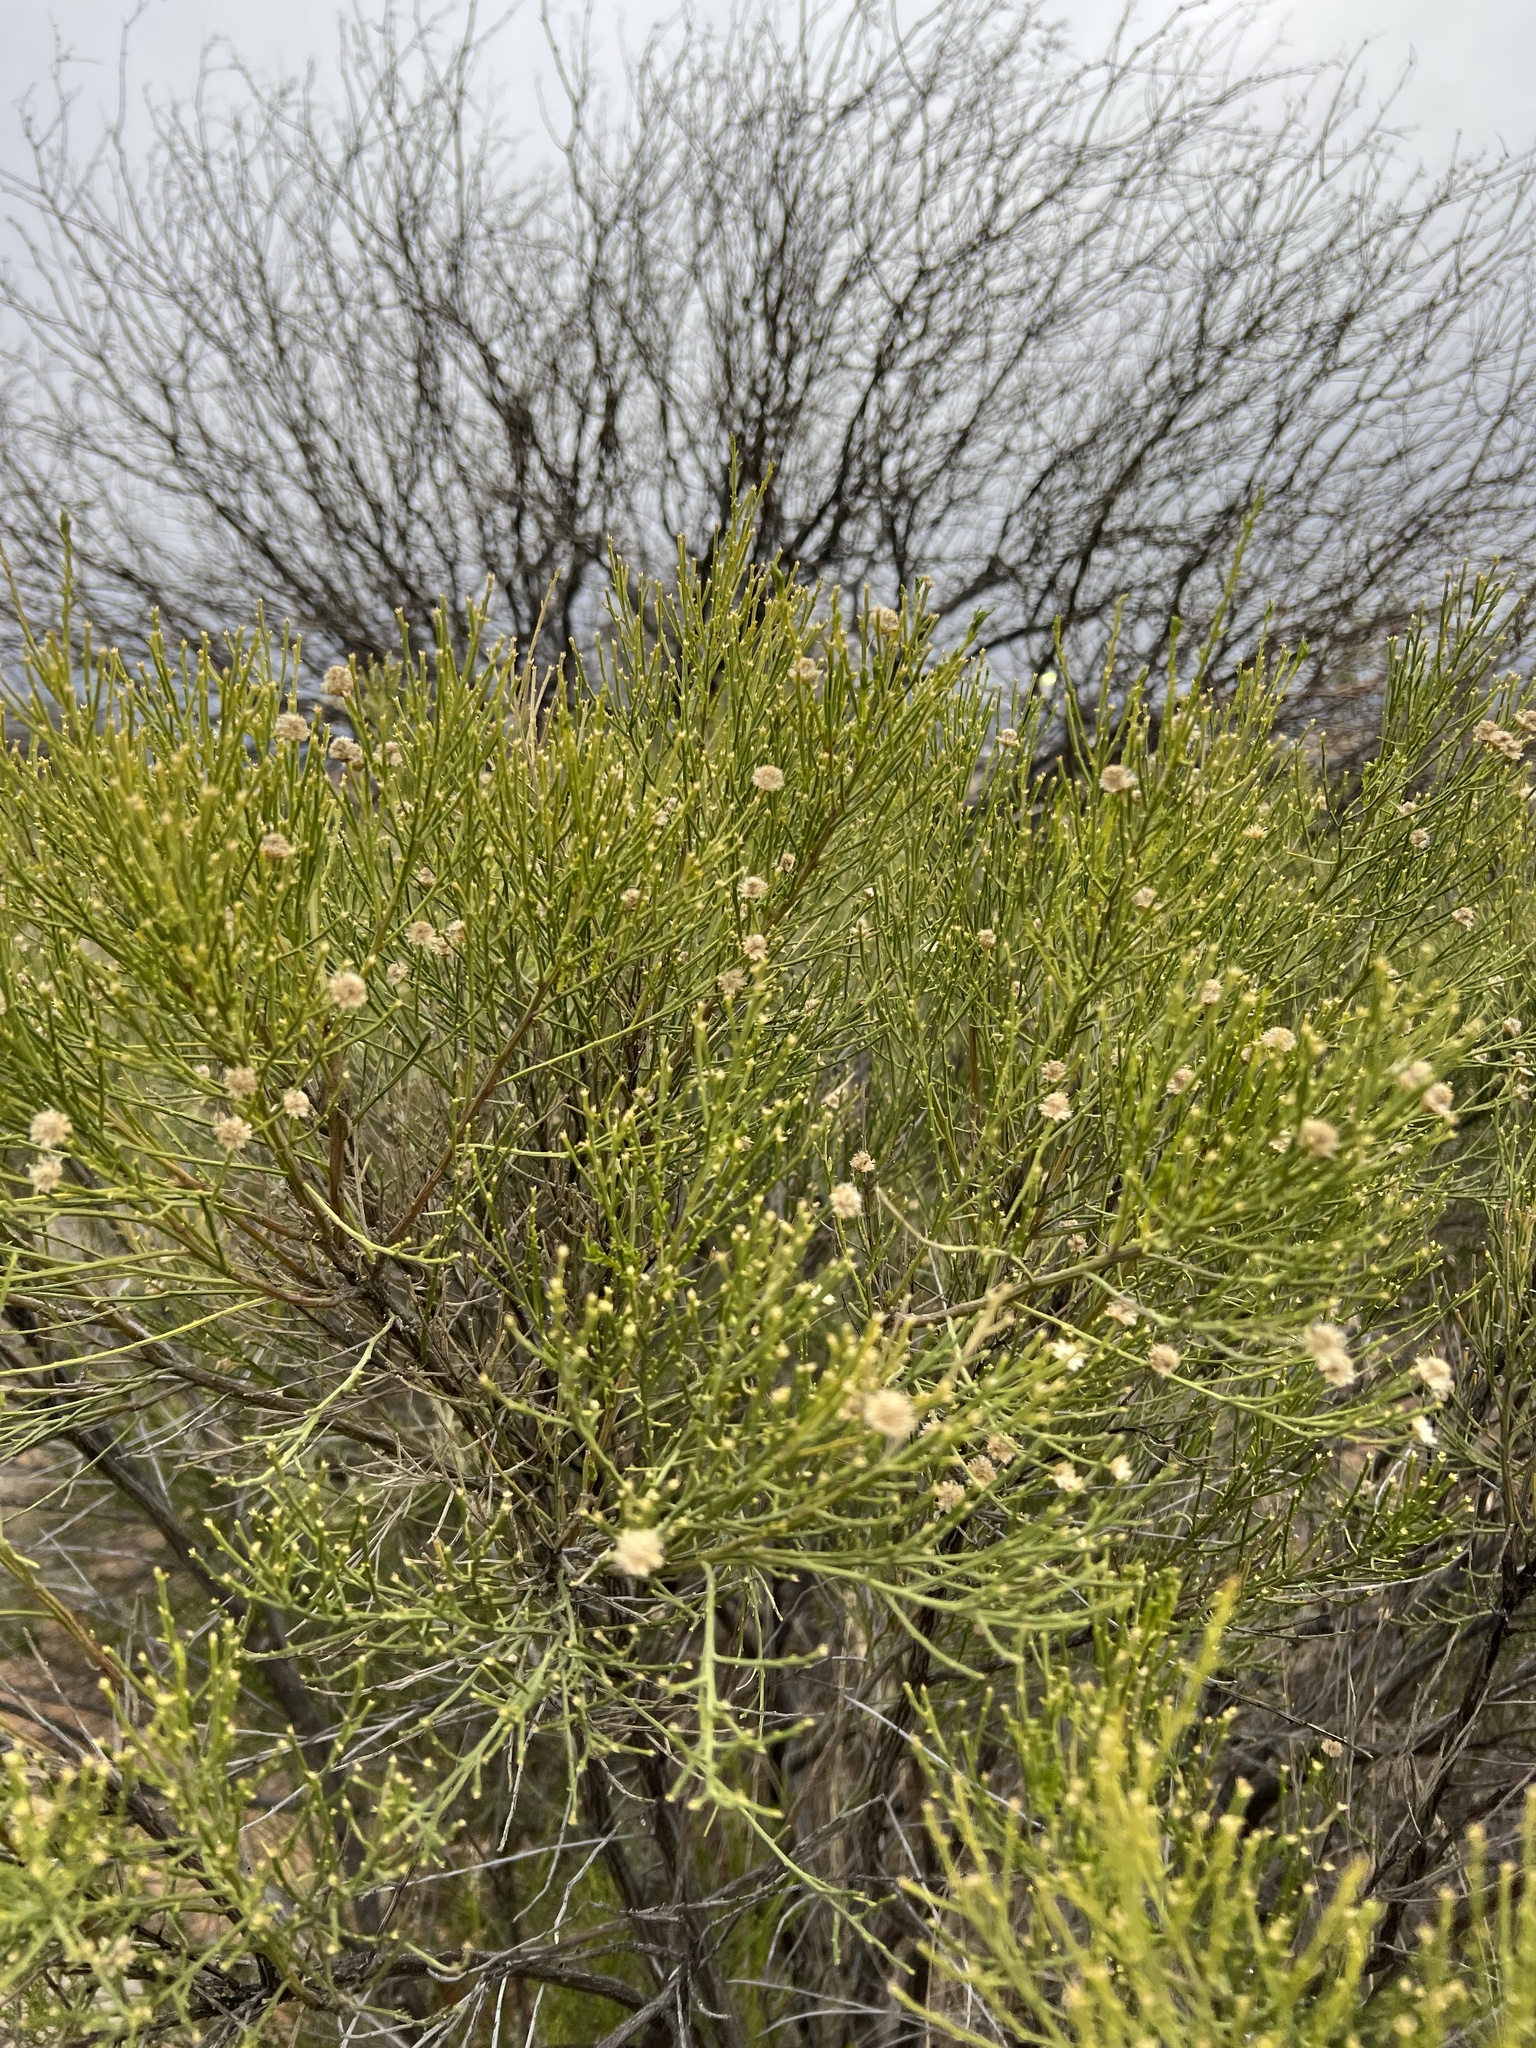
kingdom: Plantae
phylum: Tracheophyta
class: Magnoliopsida
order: Asterales
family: Asteraceae
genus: Baccharis
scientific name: Baccharis sarothroides
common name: Desert-broom
